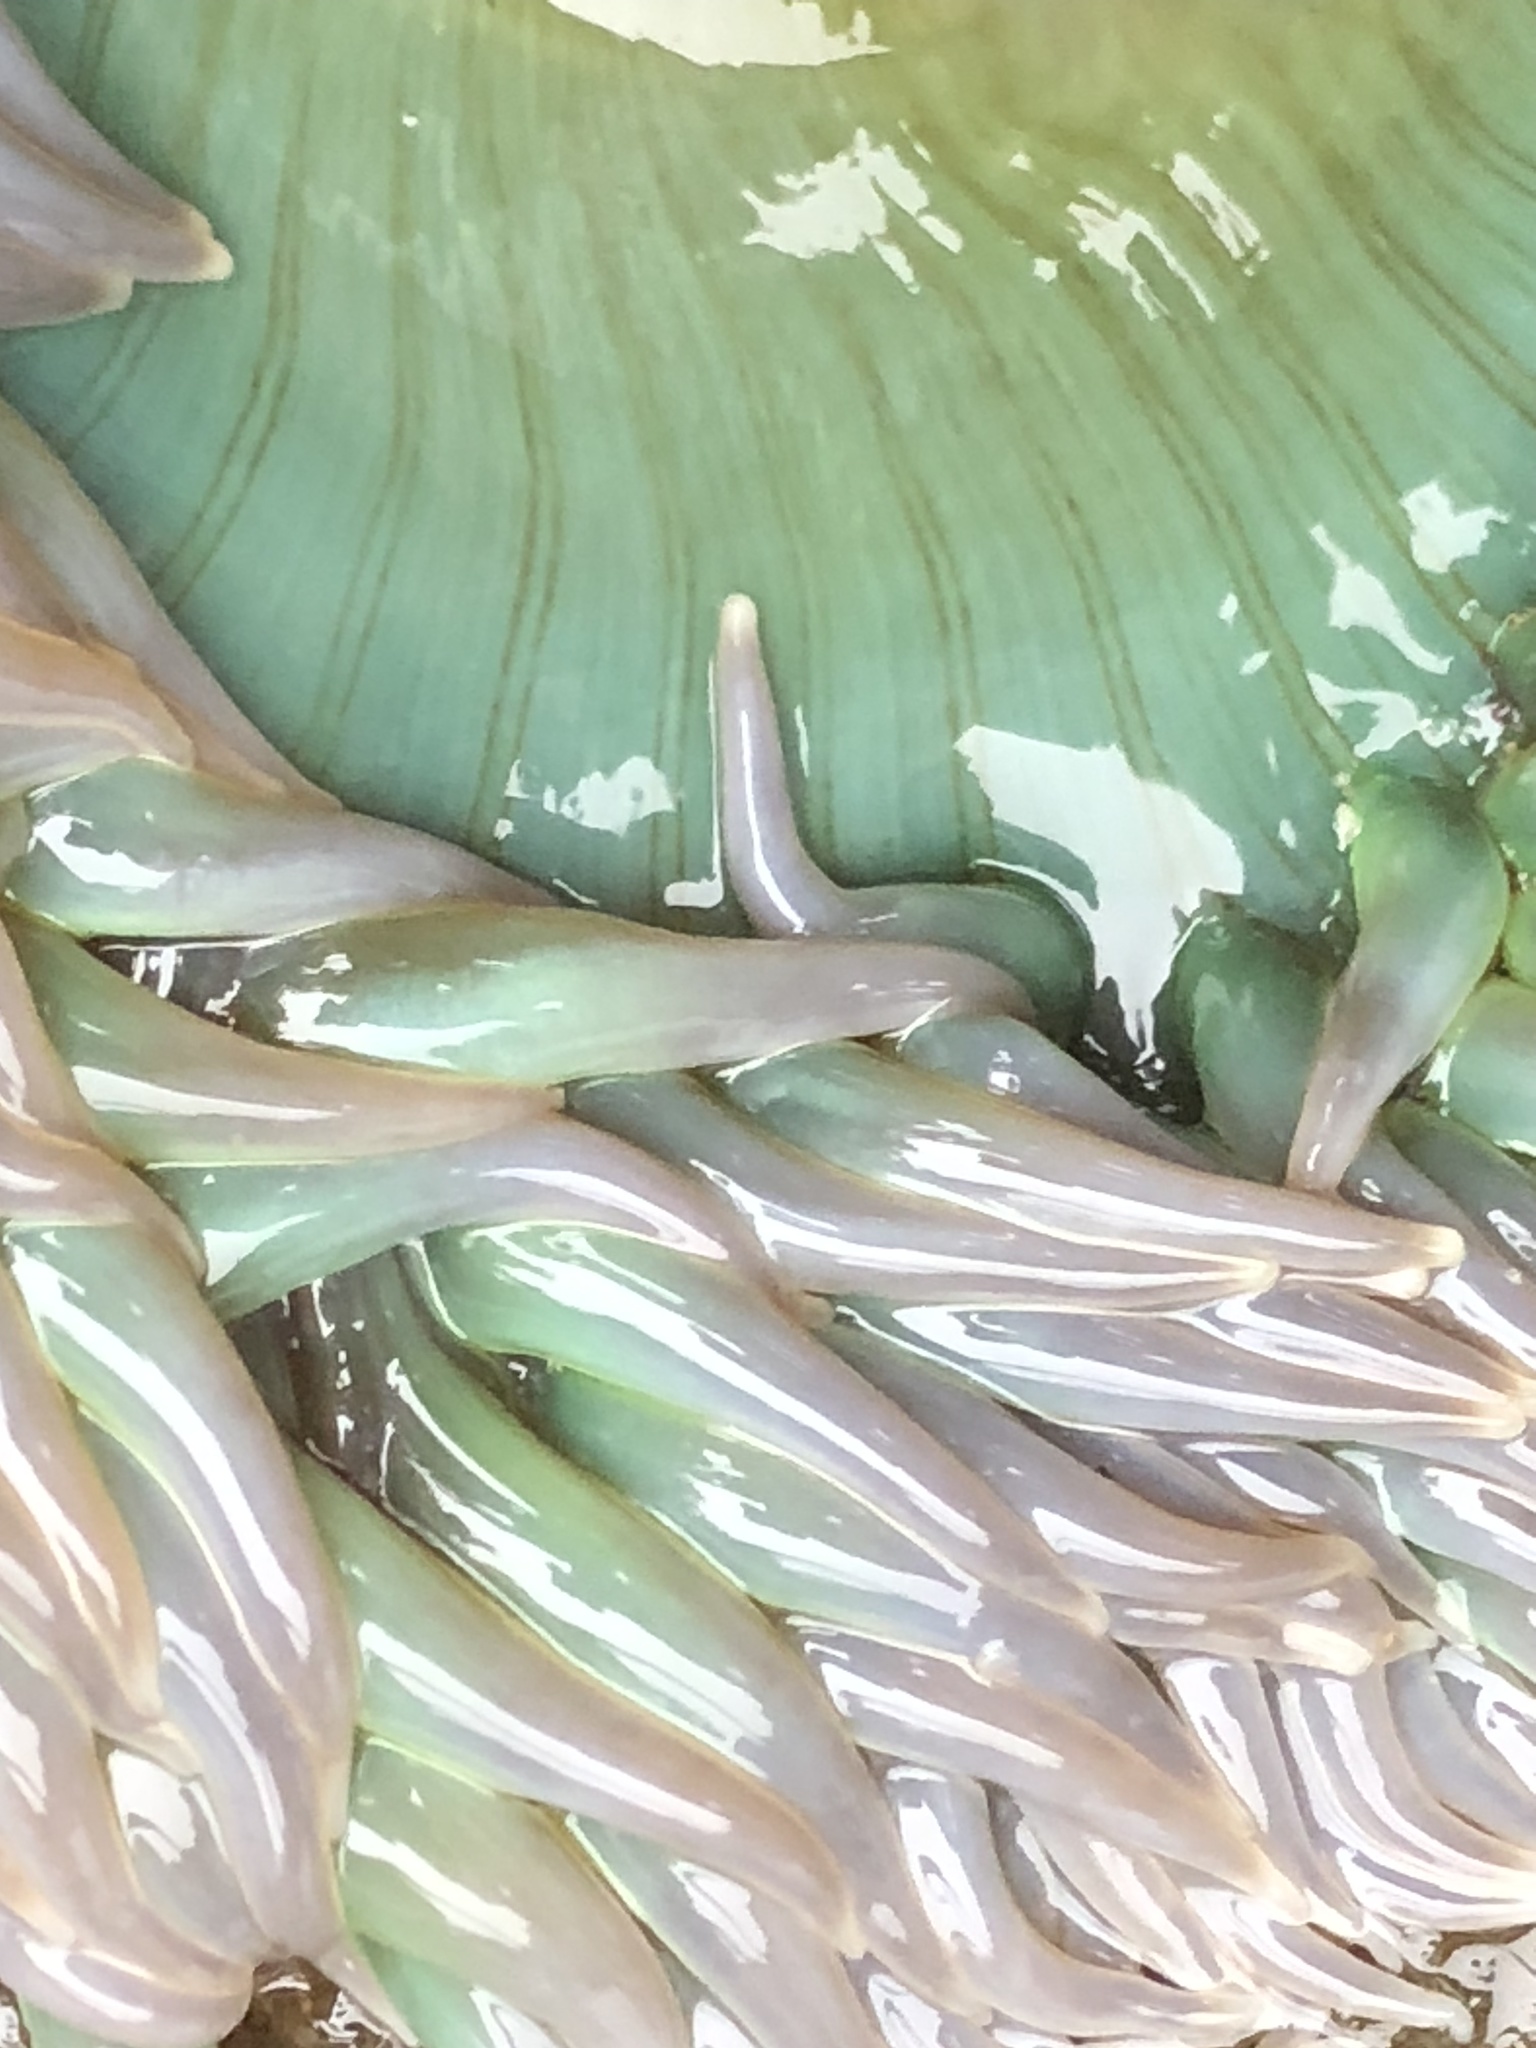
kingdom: Animalia
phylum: Cnidaria
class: Anthozoa
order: Actiniaria
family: Actiniidae
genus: Anthopleura
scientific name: Anthopleura xanthogrammica
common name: Giant green anemone
